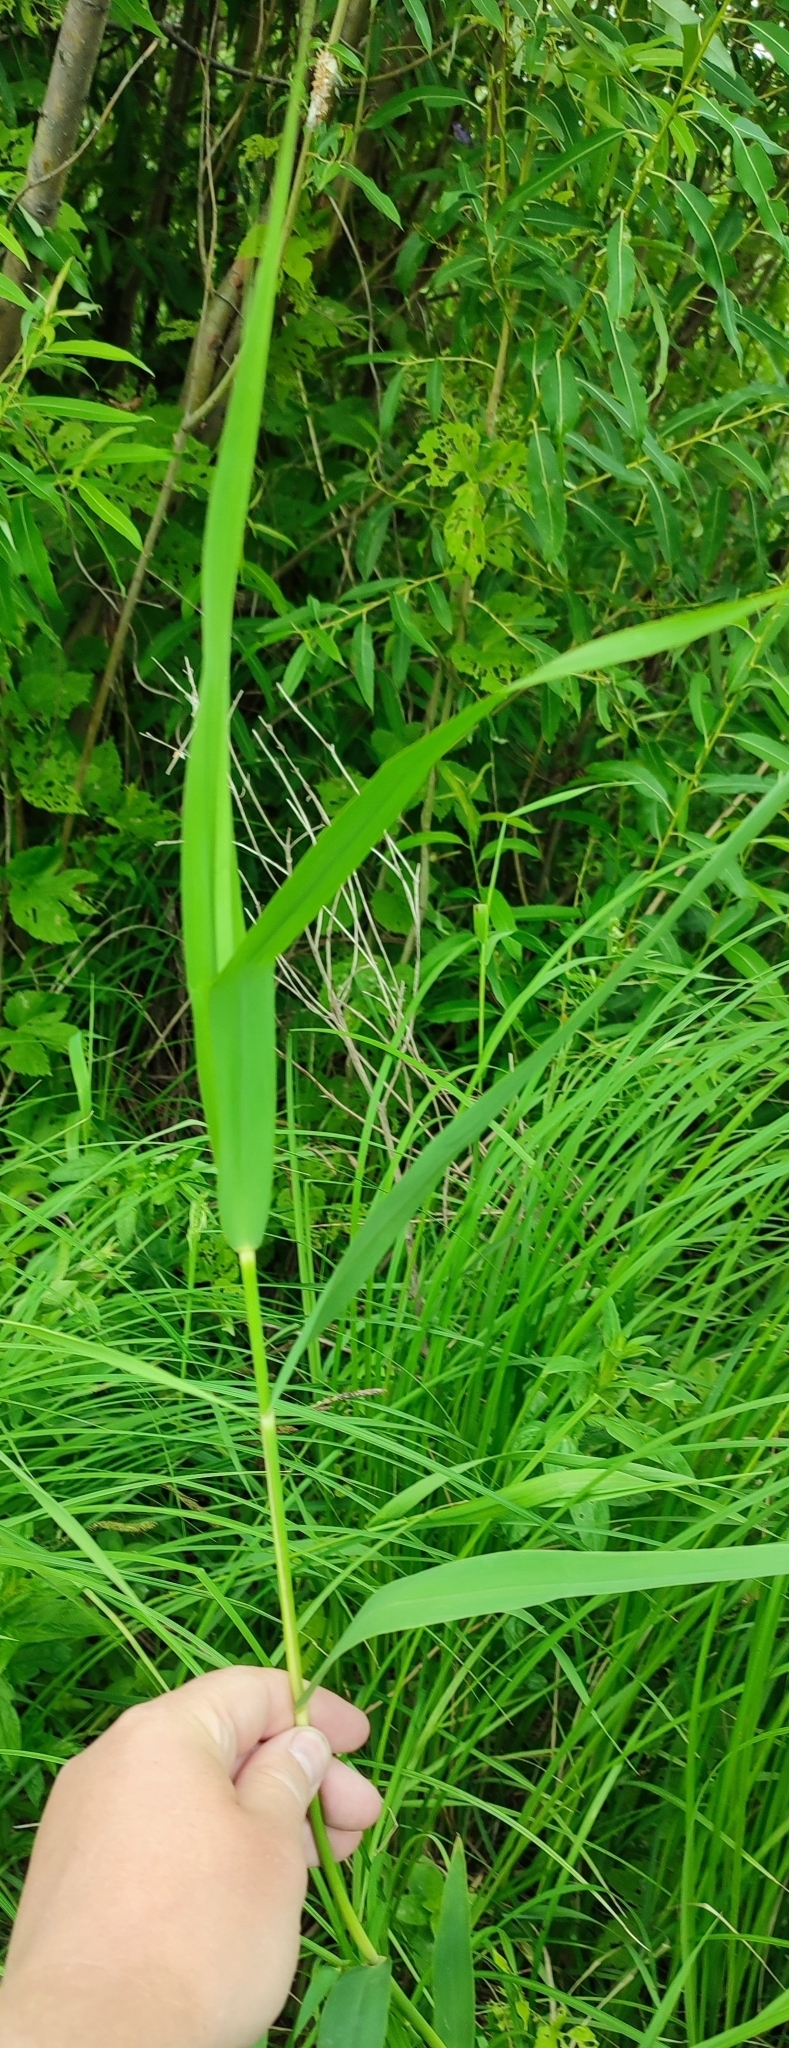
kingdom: Plantae
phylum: Tracheophyta
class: Liliopsida
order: Poales
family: Poaceae
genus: Phragmites
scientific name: Phragmites australis
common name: Common reed
